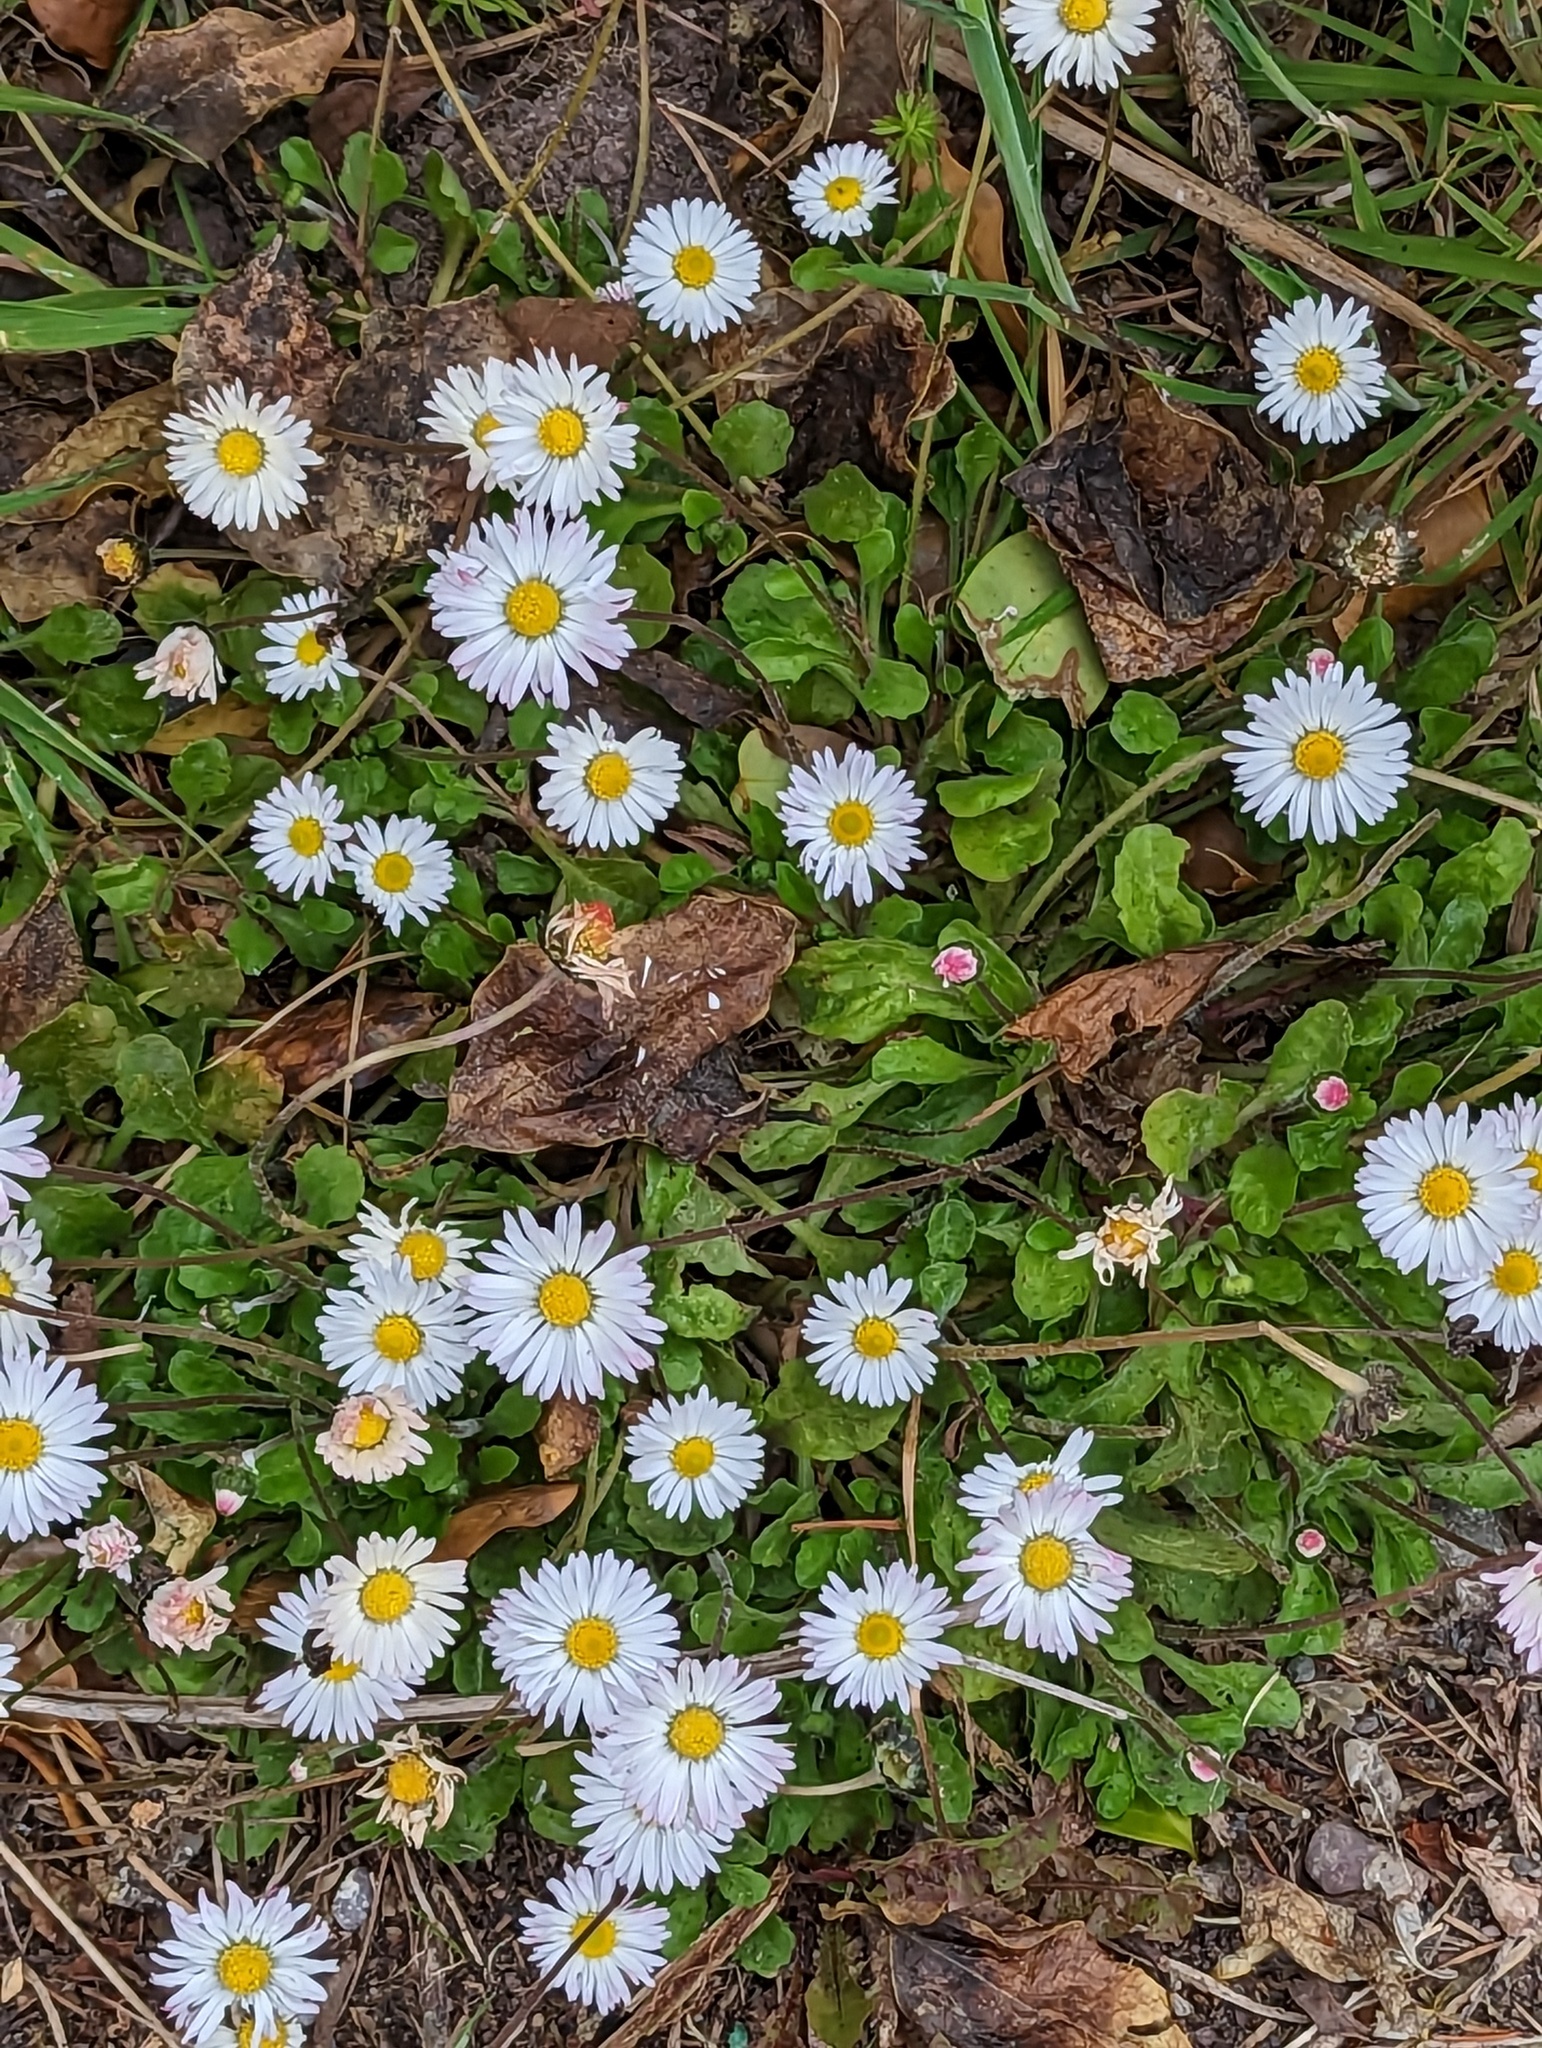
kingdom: Plantae
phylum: Tracheophyta
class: Magnoliopsida
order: Asterales
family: Asteraceae
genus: Bellis
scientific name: Bellis perennis
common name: Lawndaisy
